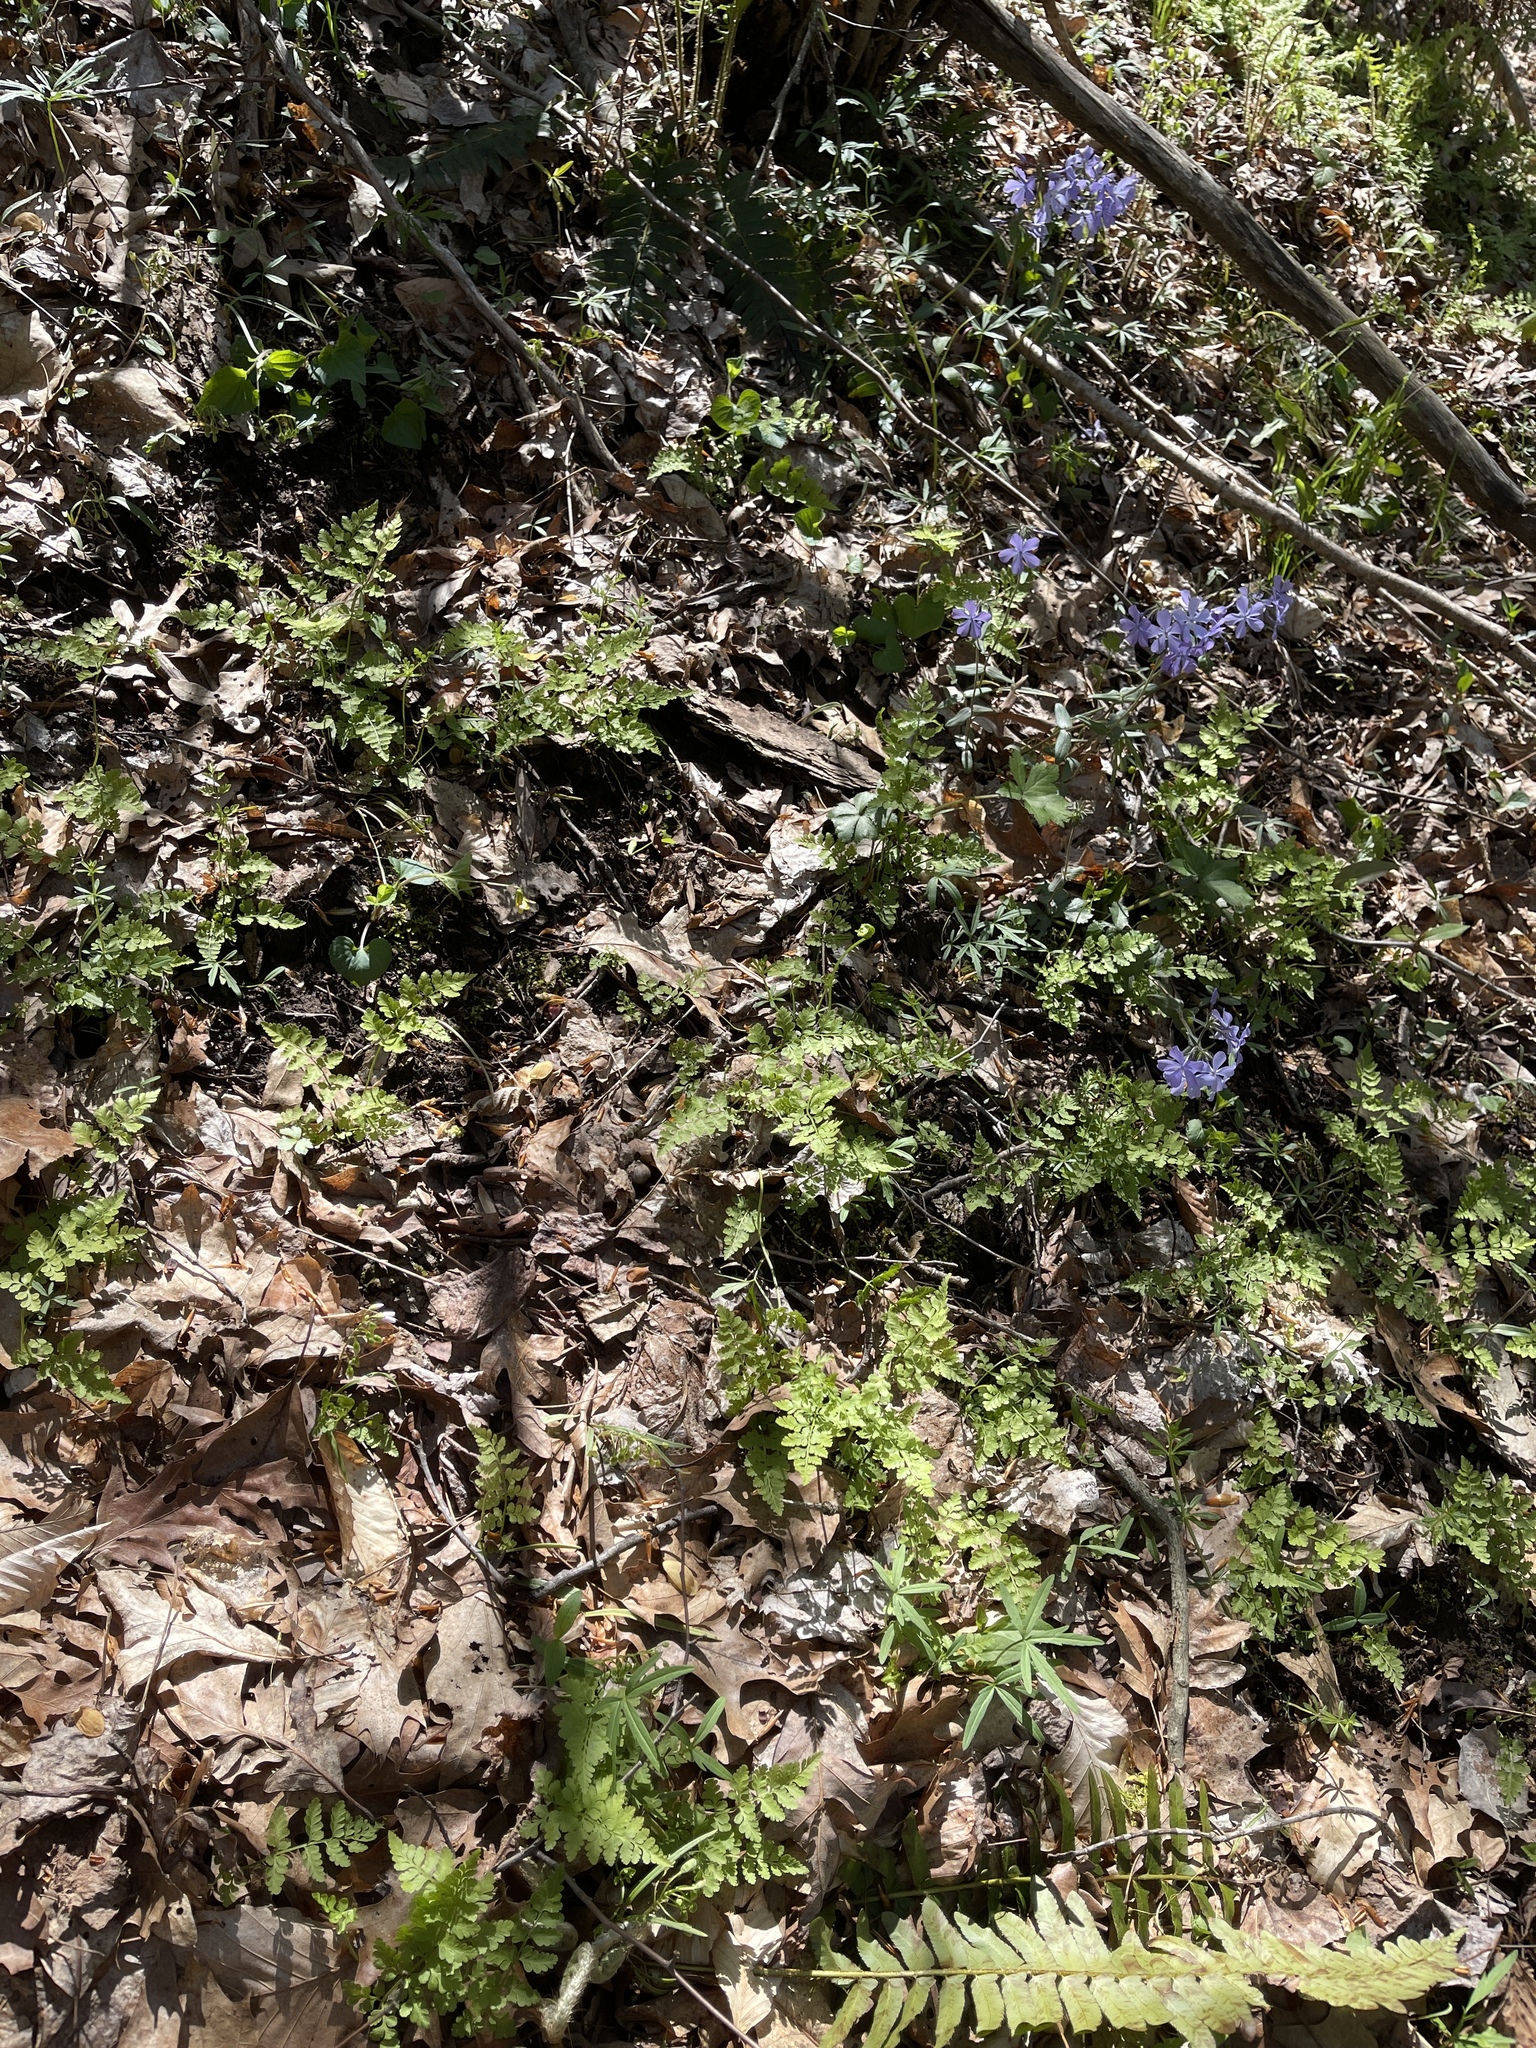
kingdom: Plantae
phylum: Tracheophyta
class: Magnoliopsida
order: Ericales
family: Polemoniaceae
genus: Phlox
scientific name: Phlox divaricata
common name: Blue phlox
